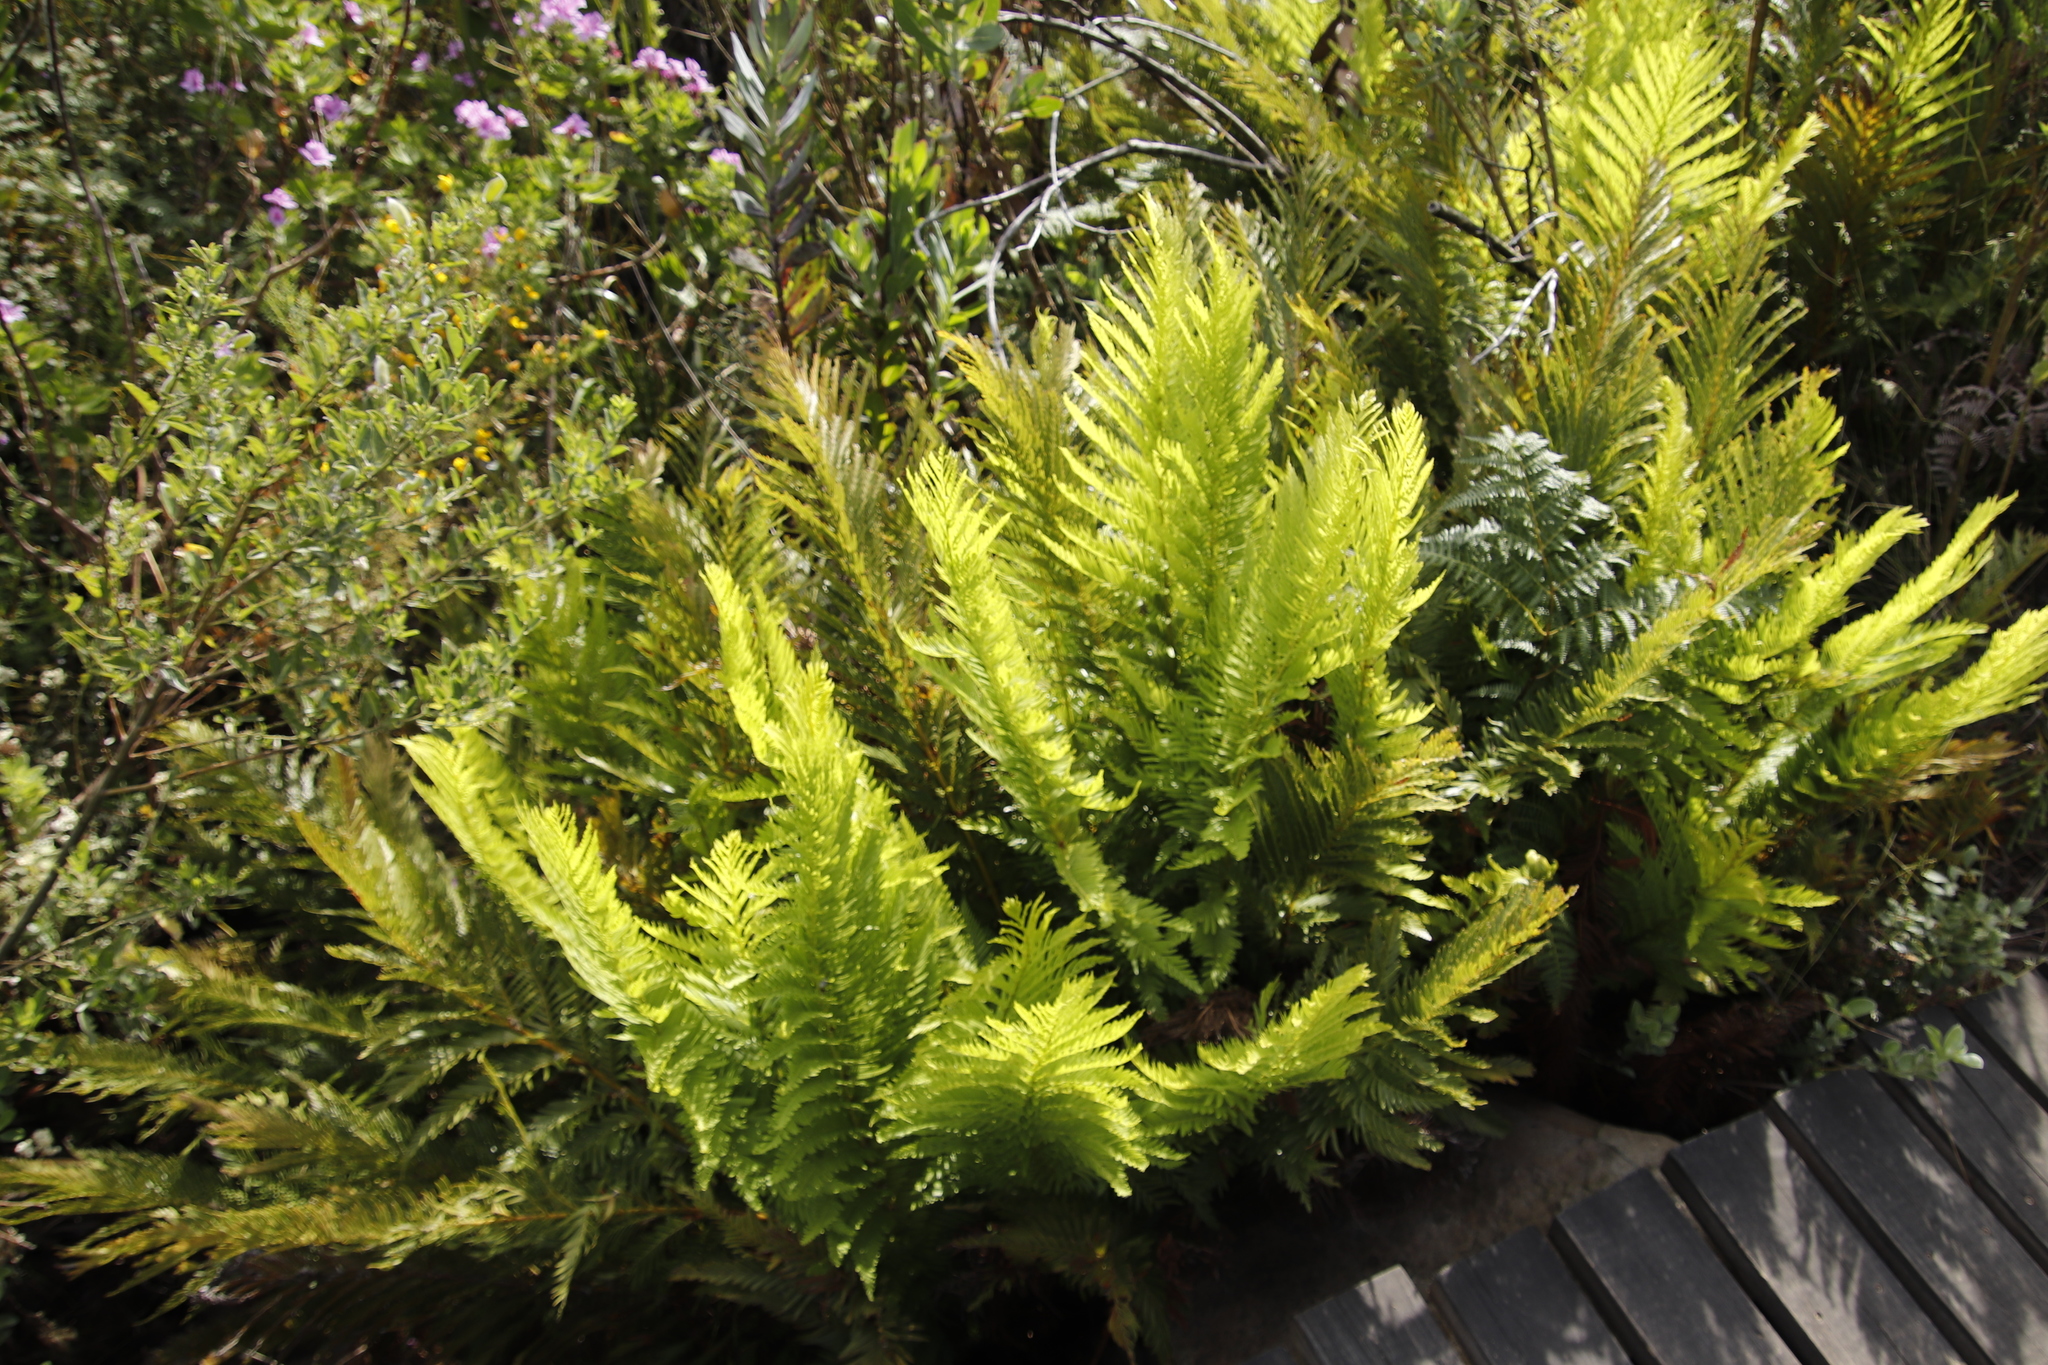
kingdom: Plantae
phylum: Tracheophyta
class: Polypodiopsida
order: Osmundales
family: Osmundaceae
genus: Todea
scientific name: Todea barbara
